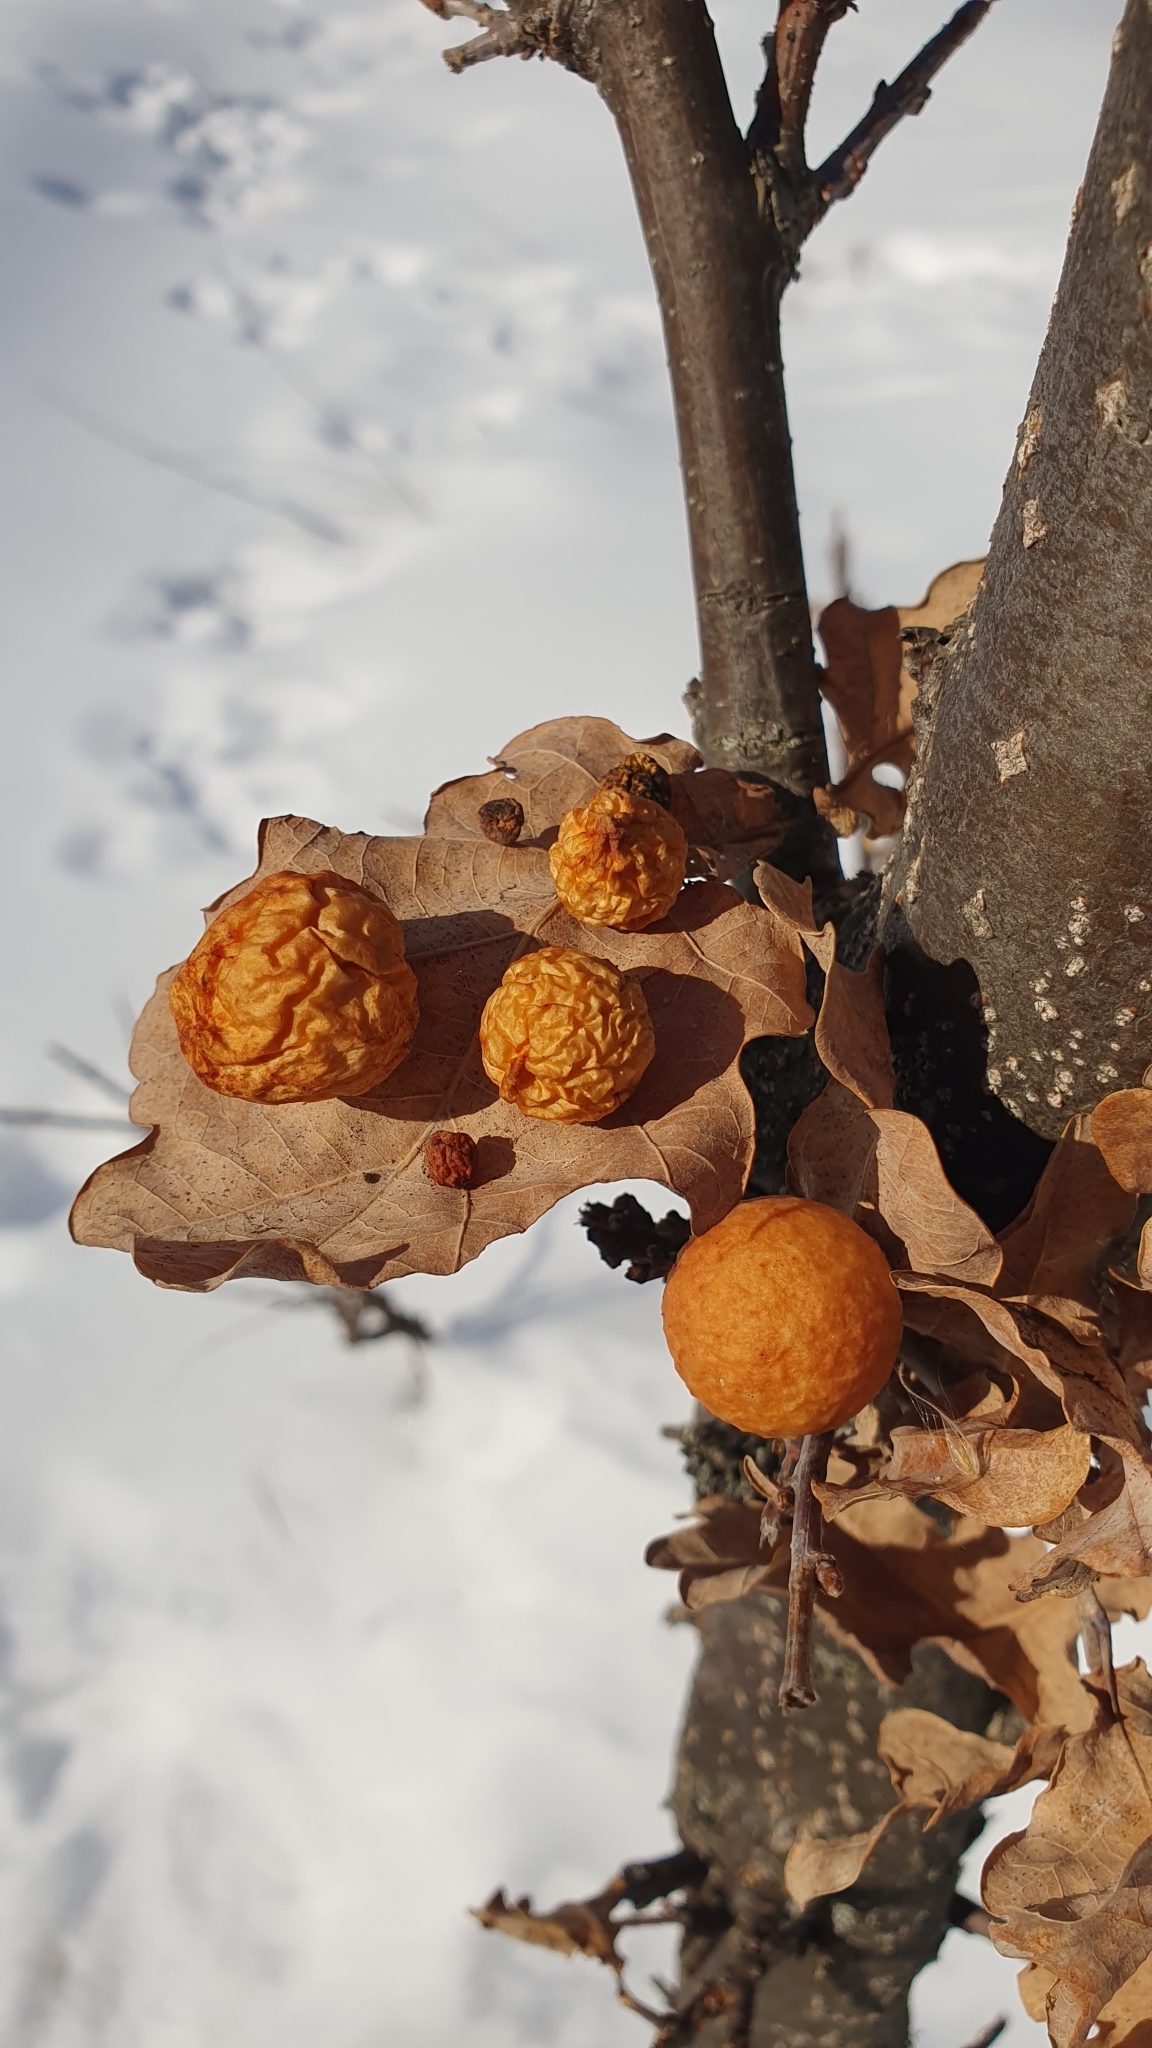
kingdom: Animalia
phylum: Arthropoda
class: Insecta
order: Hymenoptera
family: Cynipidae
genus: Cynips
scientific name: Cynips quercusfolii
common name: Cherry gall
